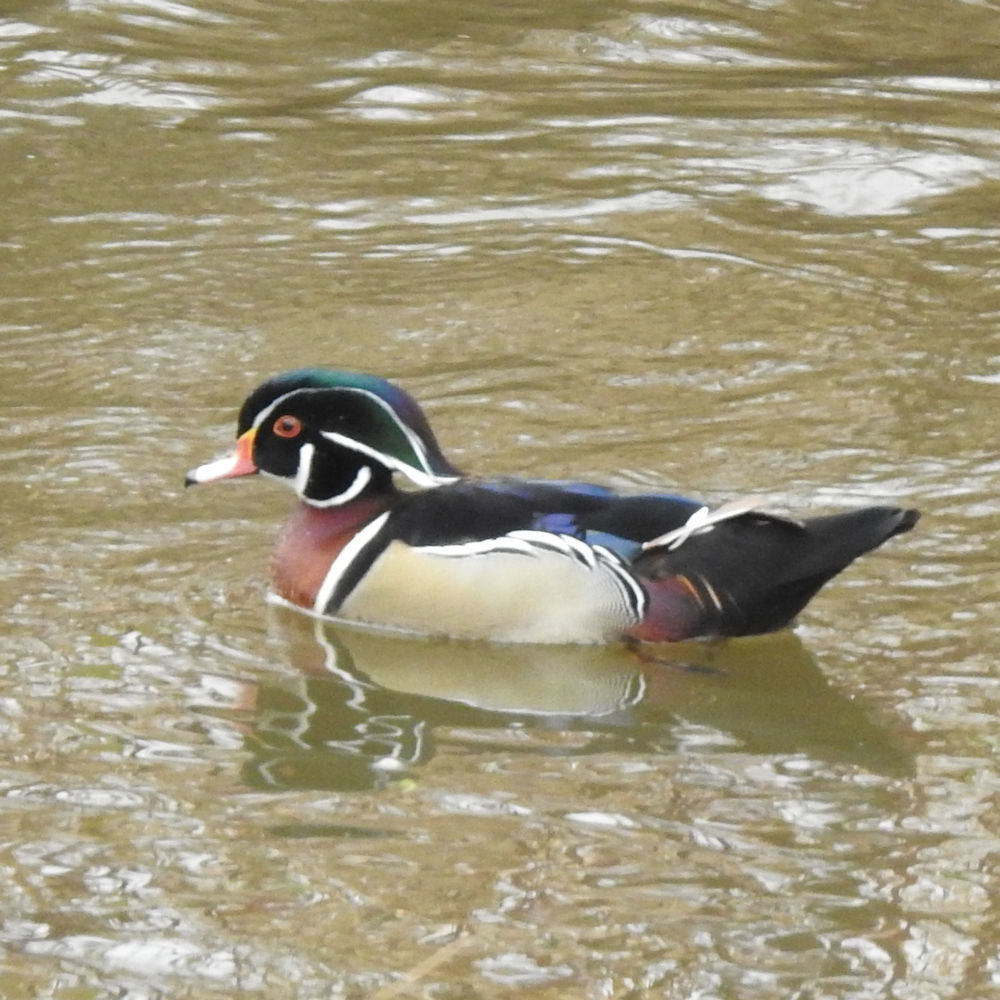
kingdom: Animalia
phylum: Chordata
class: Aves
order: Anseriformes
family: Anatidae
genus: Aix
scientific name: Aix sponsa
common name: Wood duck
